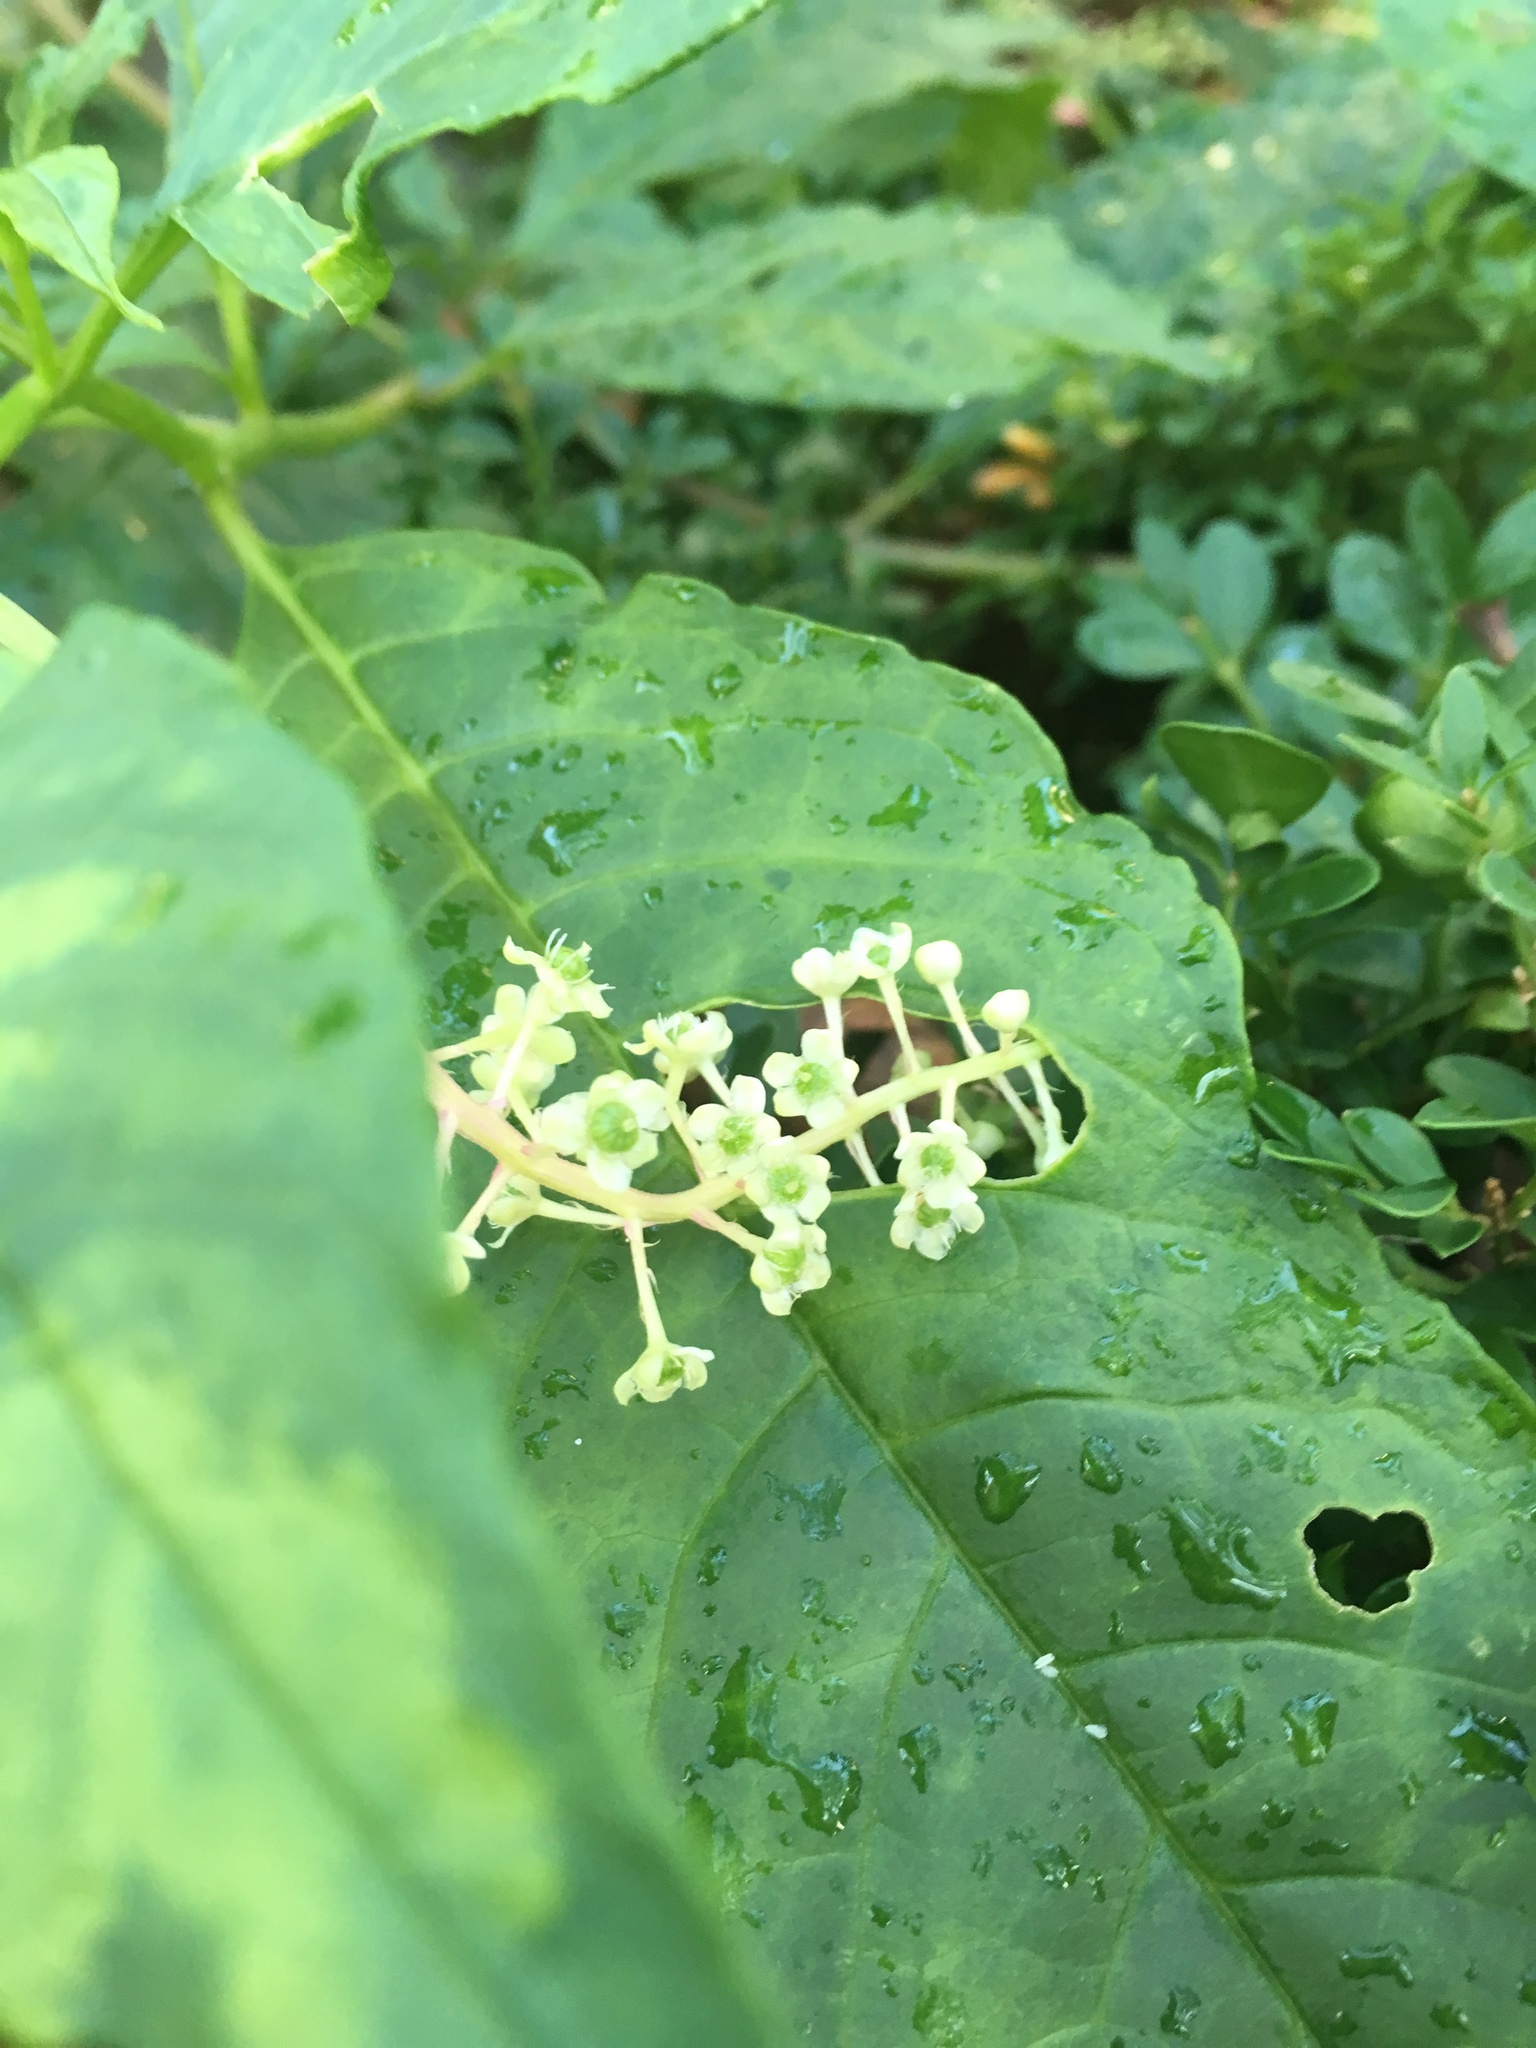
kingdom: Plantae
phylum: Tracheophyta
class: Magnoliopsida
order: Caryophyllales
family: Phytolaccaceae
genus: Phytolacca
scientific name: Phytolacca americana
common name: American pokeweed
